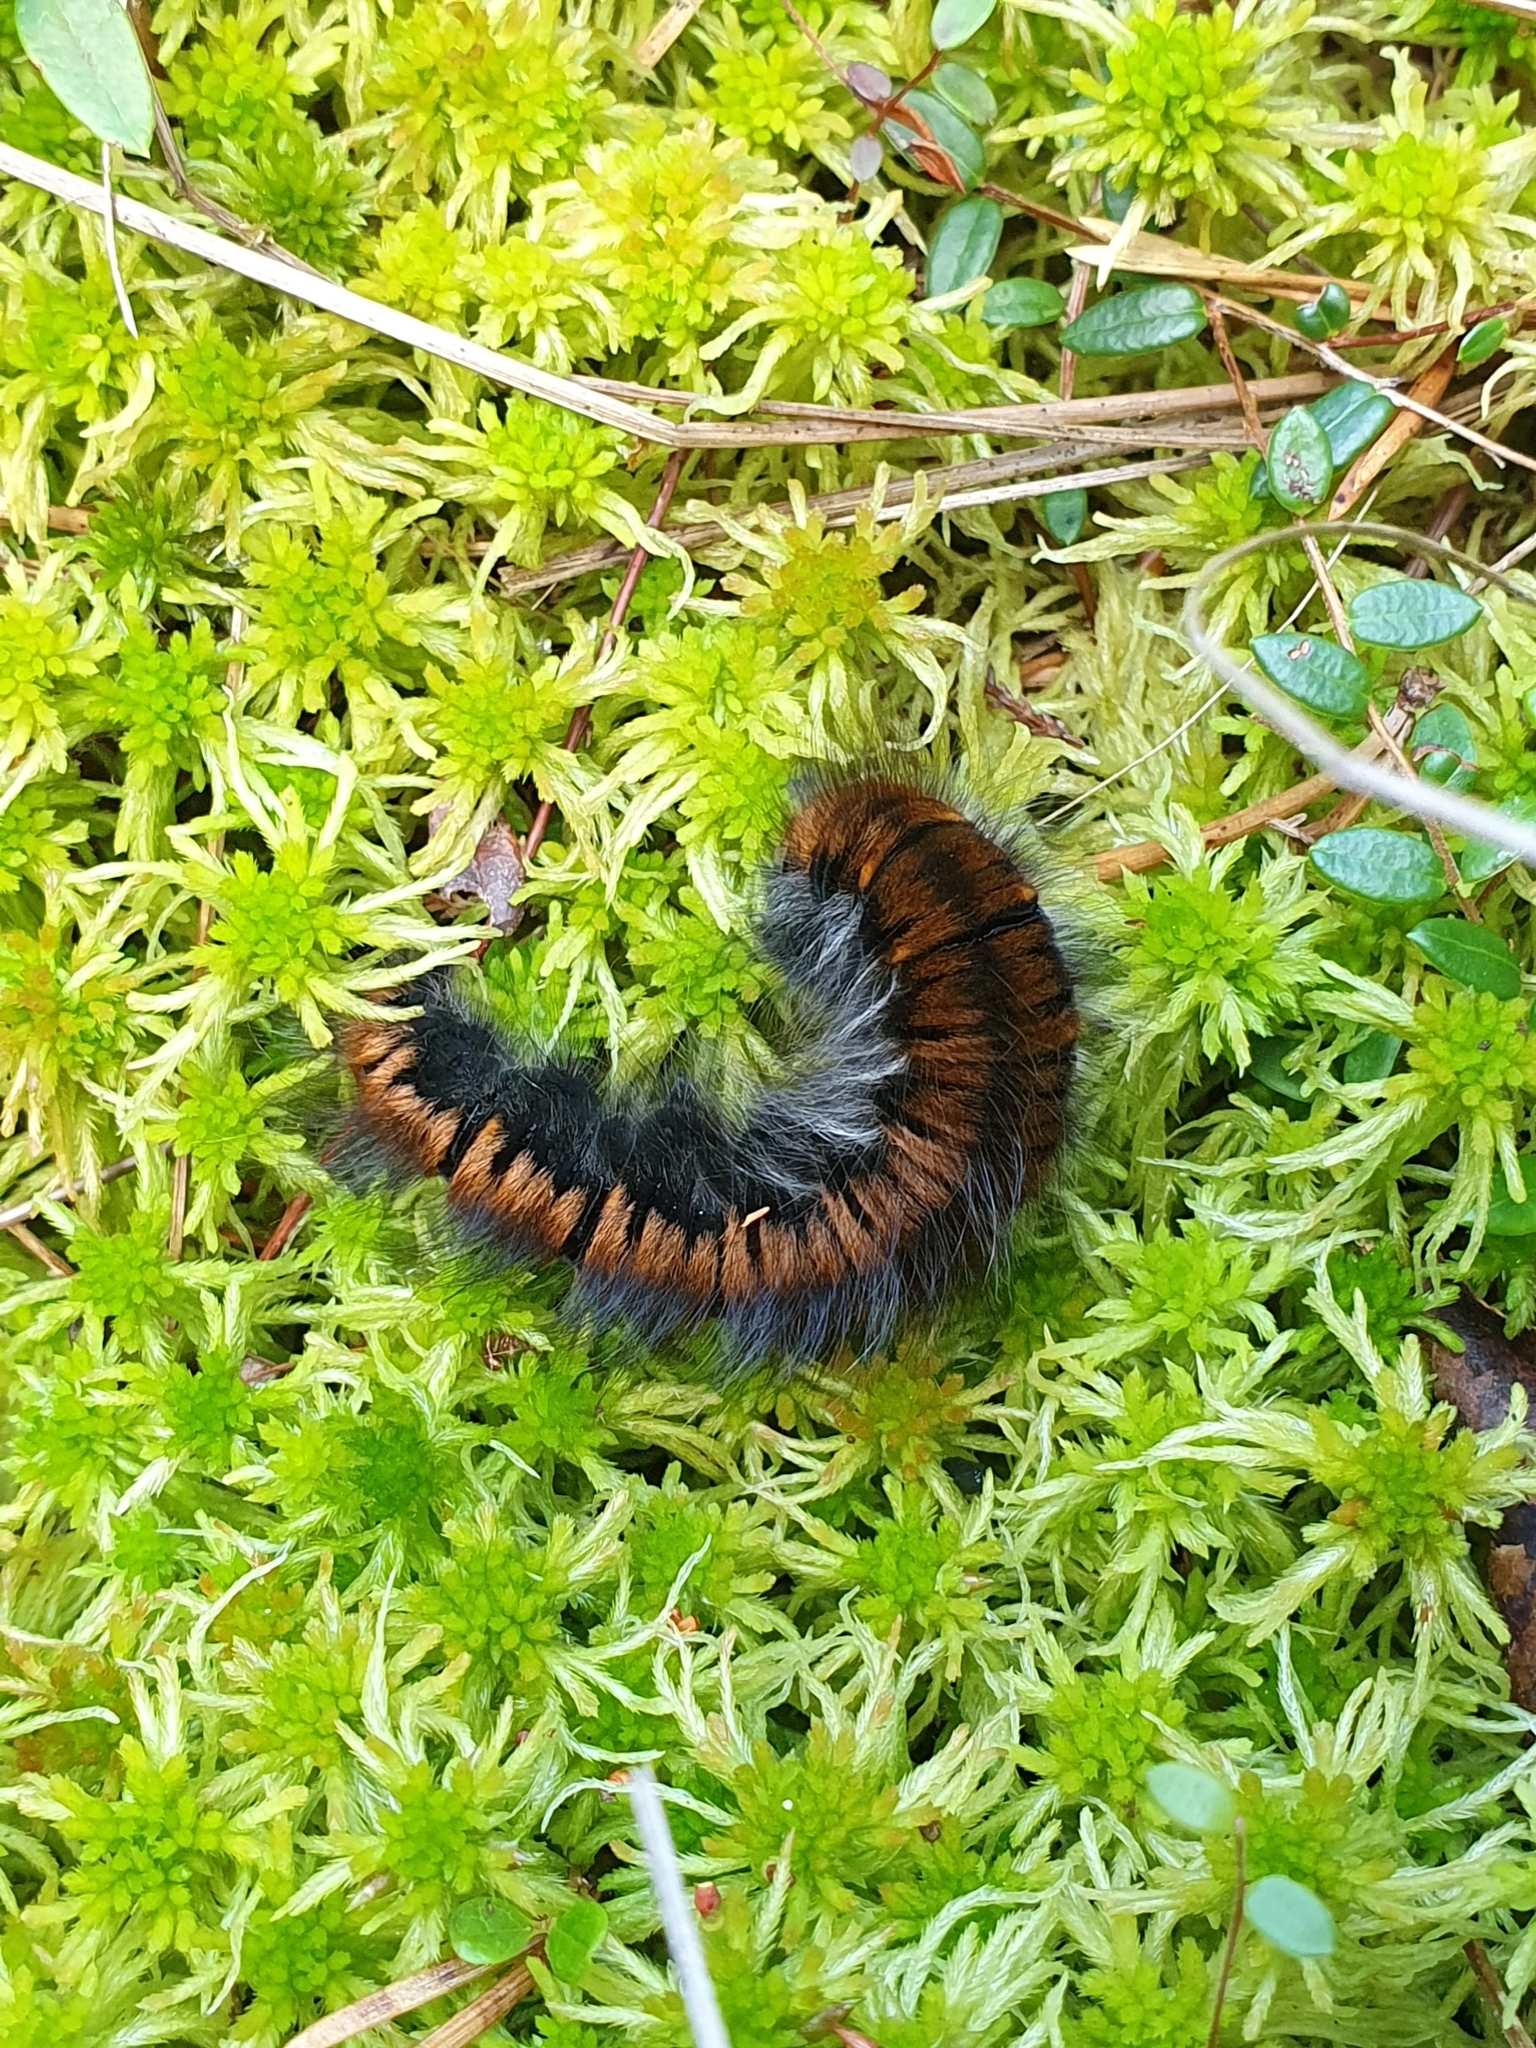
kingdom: Animalia
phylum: Arthropoda
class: Insecta
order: Lepidoptera
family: Lasiocampidae
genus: Macrothylacia
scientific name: Macrothylacia rubi
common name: Fox moth
